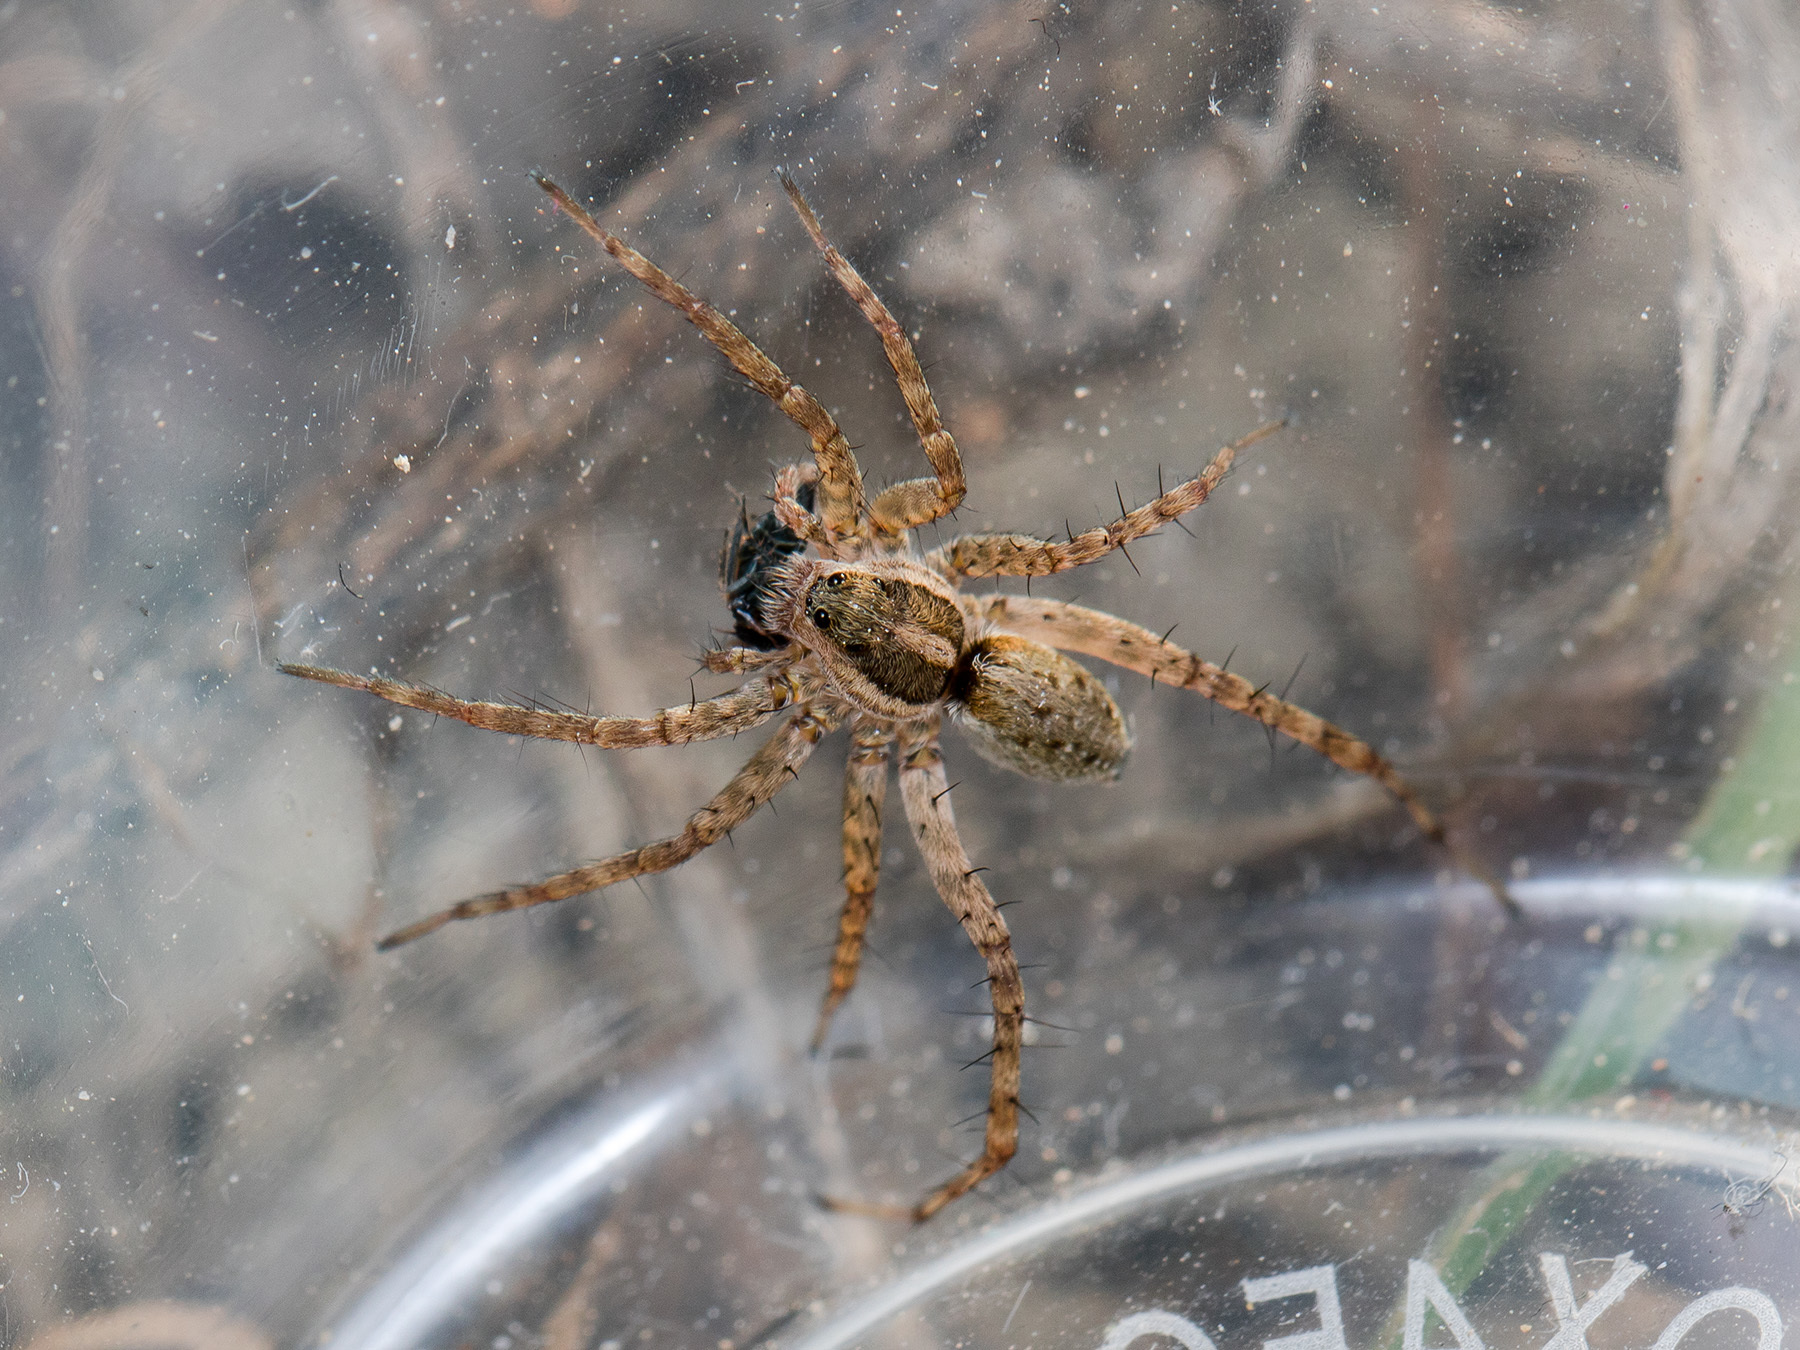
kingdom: Animalia
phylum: Arthropoda
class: Arachnida
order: Araneae
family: Lycosidae
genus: Pardosa
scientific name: Pardosa zonsteini
